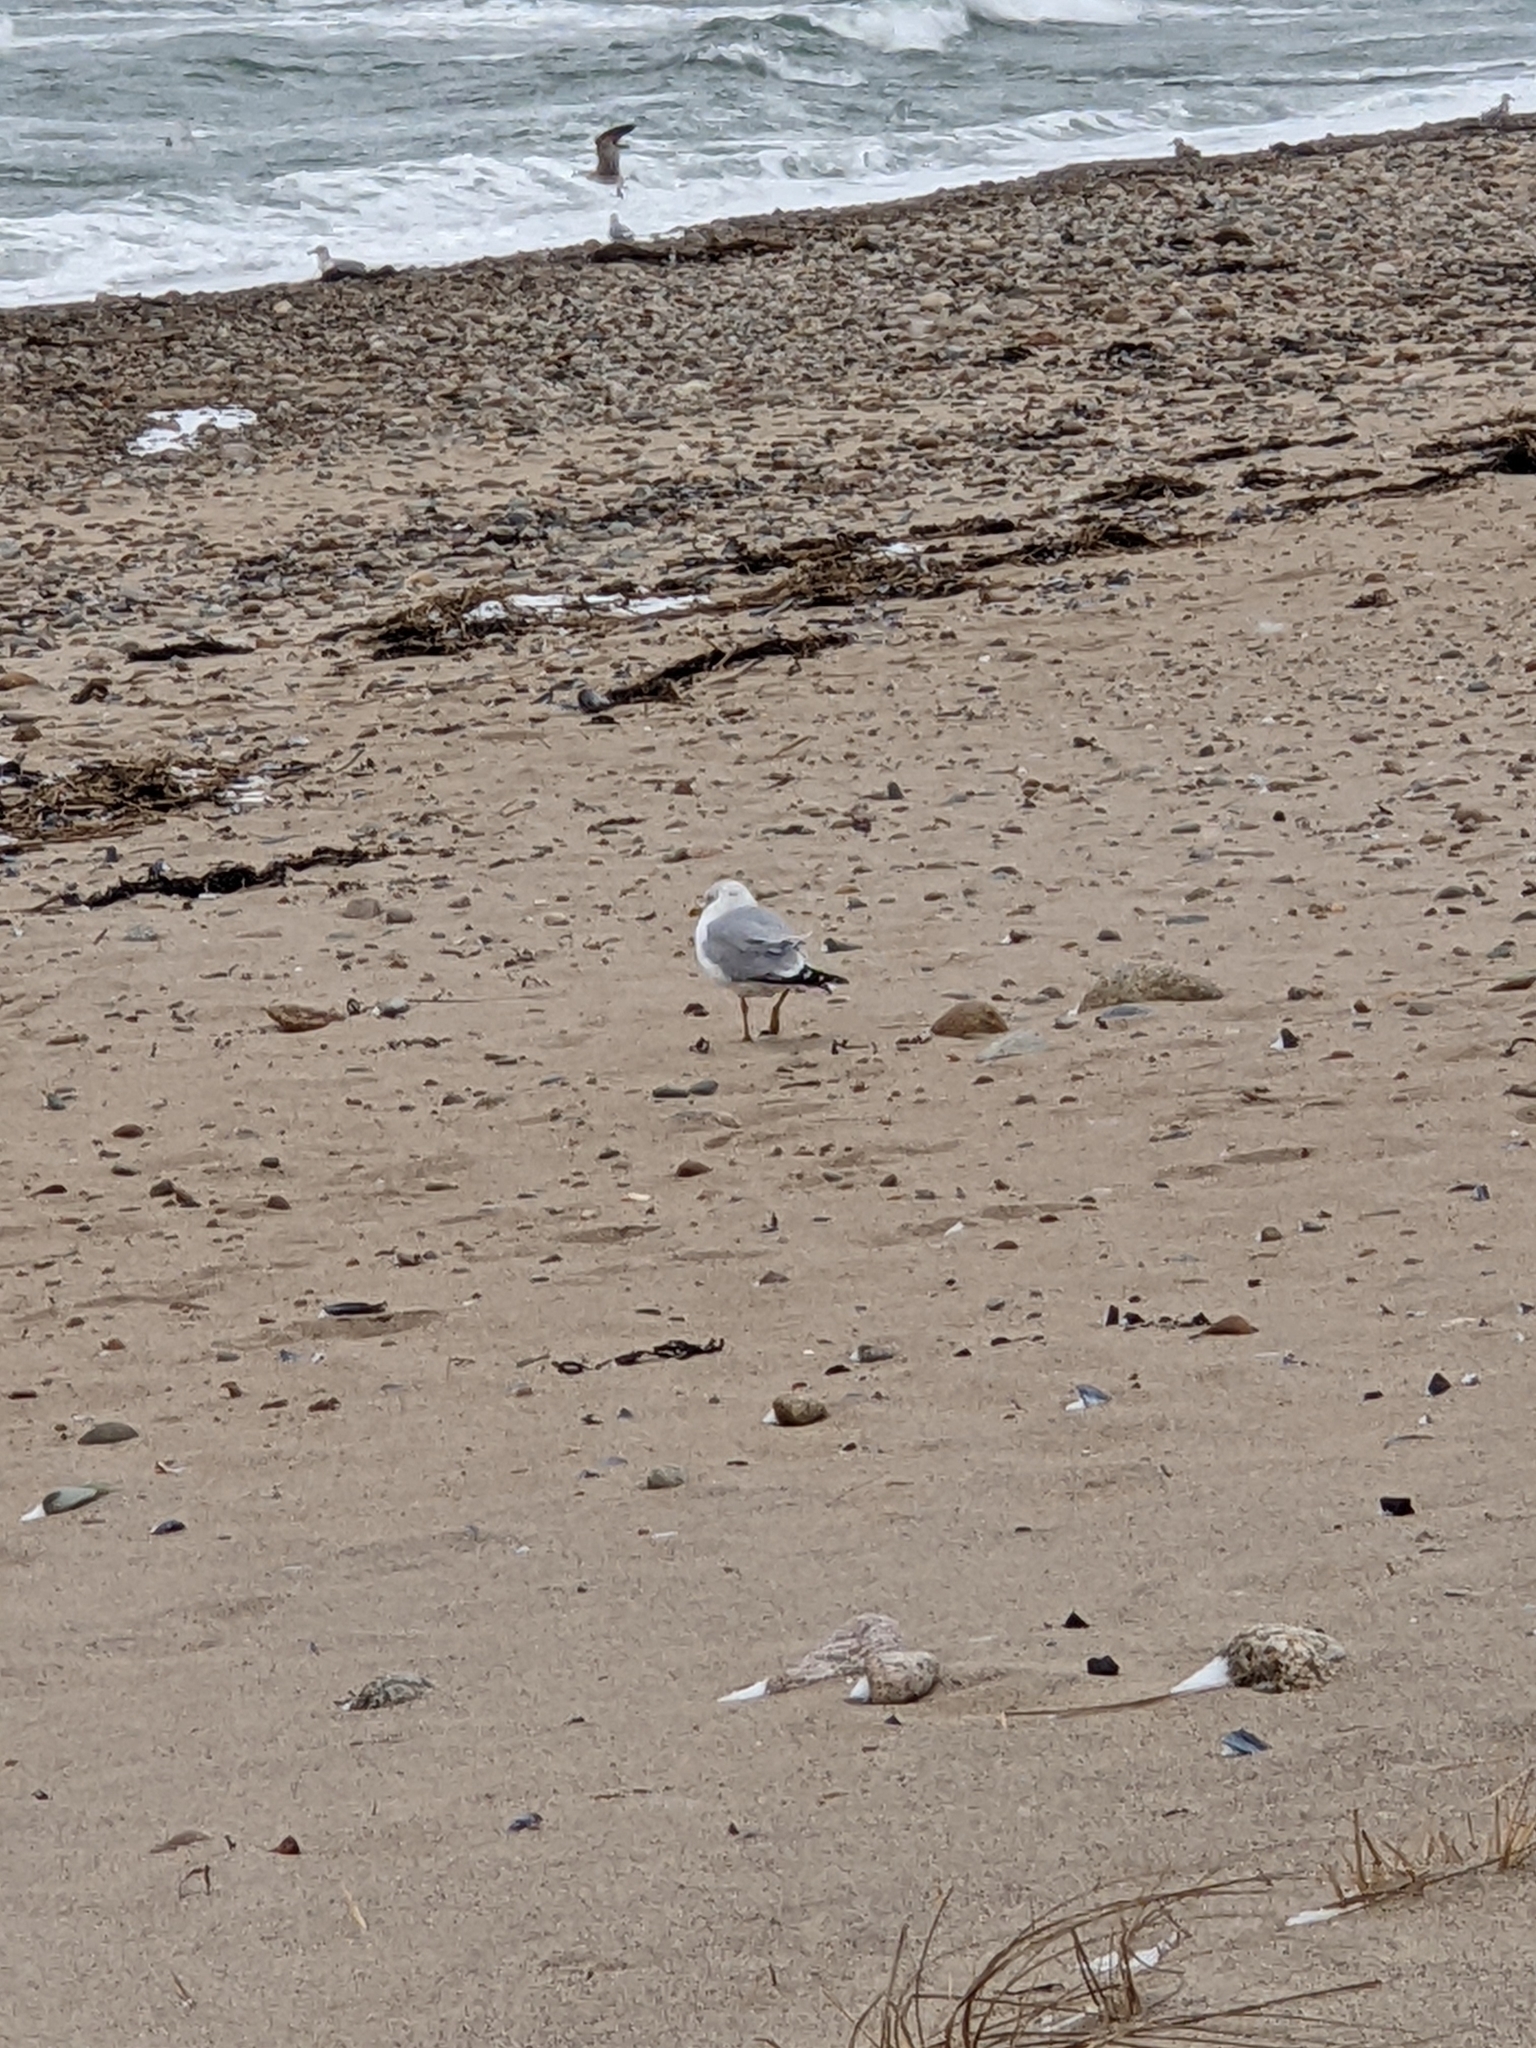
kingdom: Animalia
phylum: Chordata
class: Aves
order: Charadriiformes
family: Laridae
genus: Larus
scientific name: Larus delawarensis
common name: Ring-billed gull
